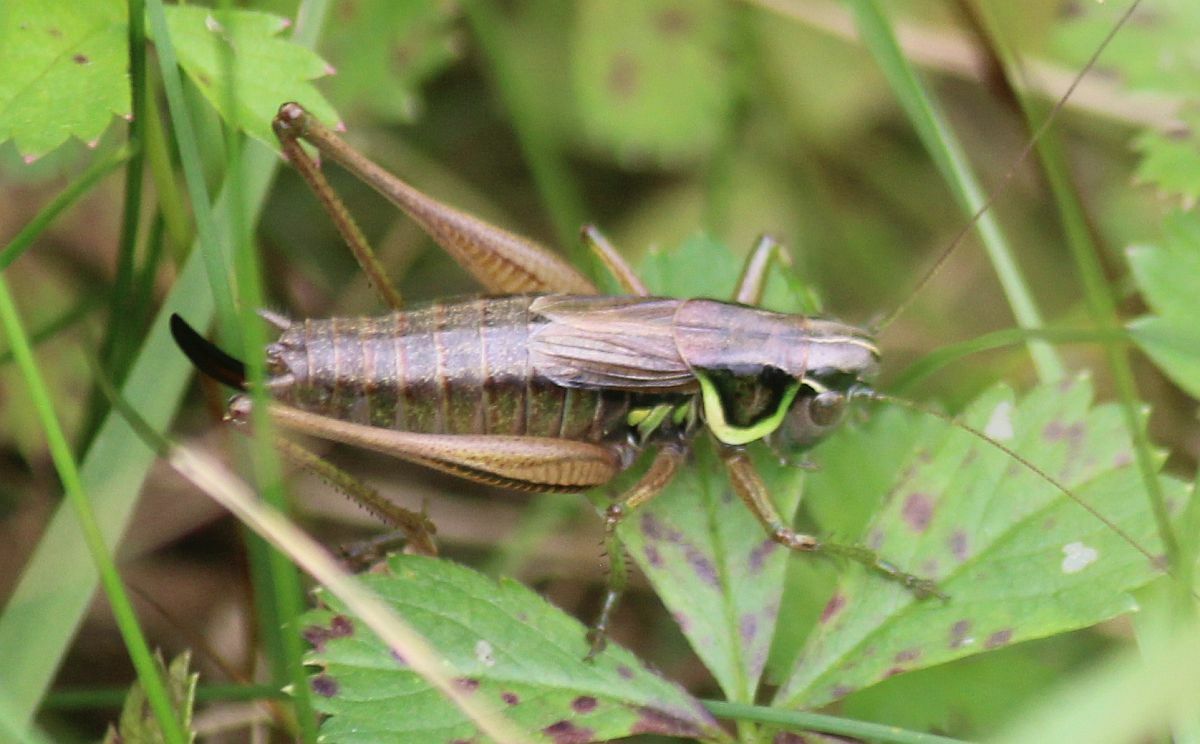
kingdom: Animalia
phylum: Arthropoda
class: Insecta
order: Orthoptera
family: Tettigoniidae
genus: Roeseliana
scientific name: Roeseliana roeselii
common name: Roesel's bush cricket
